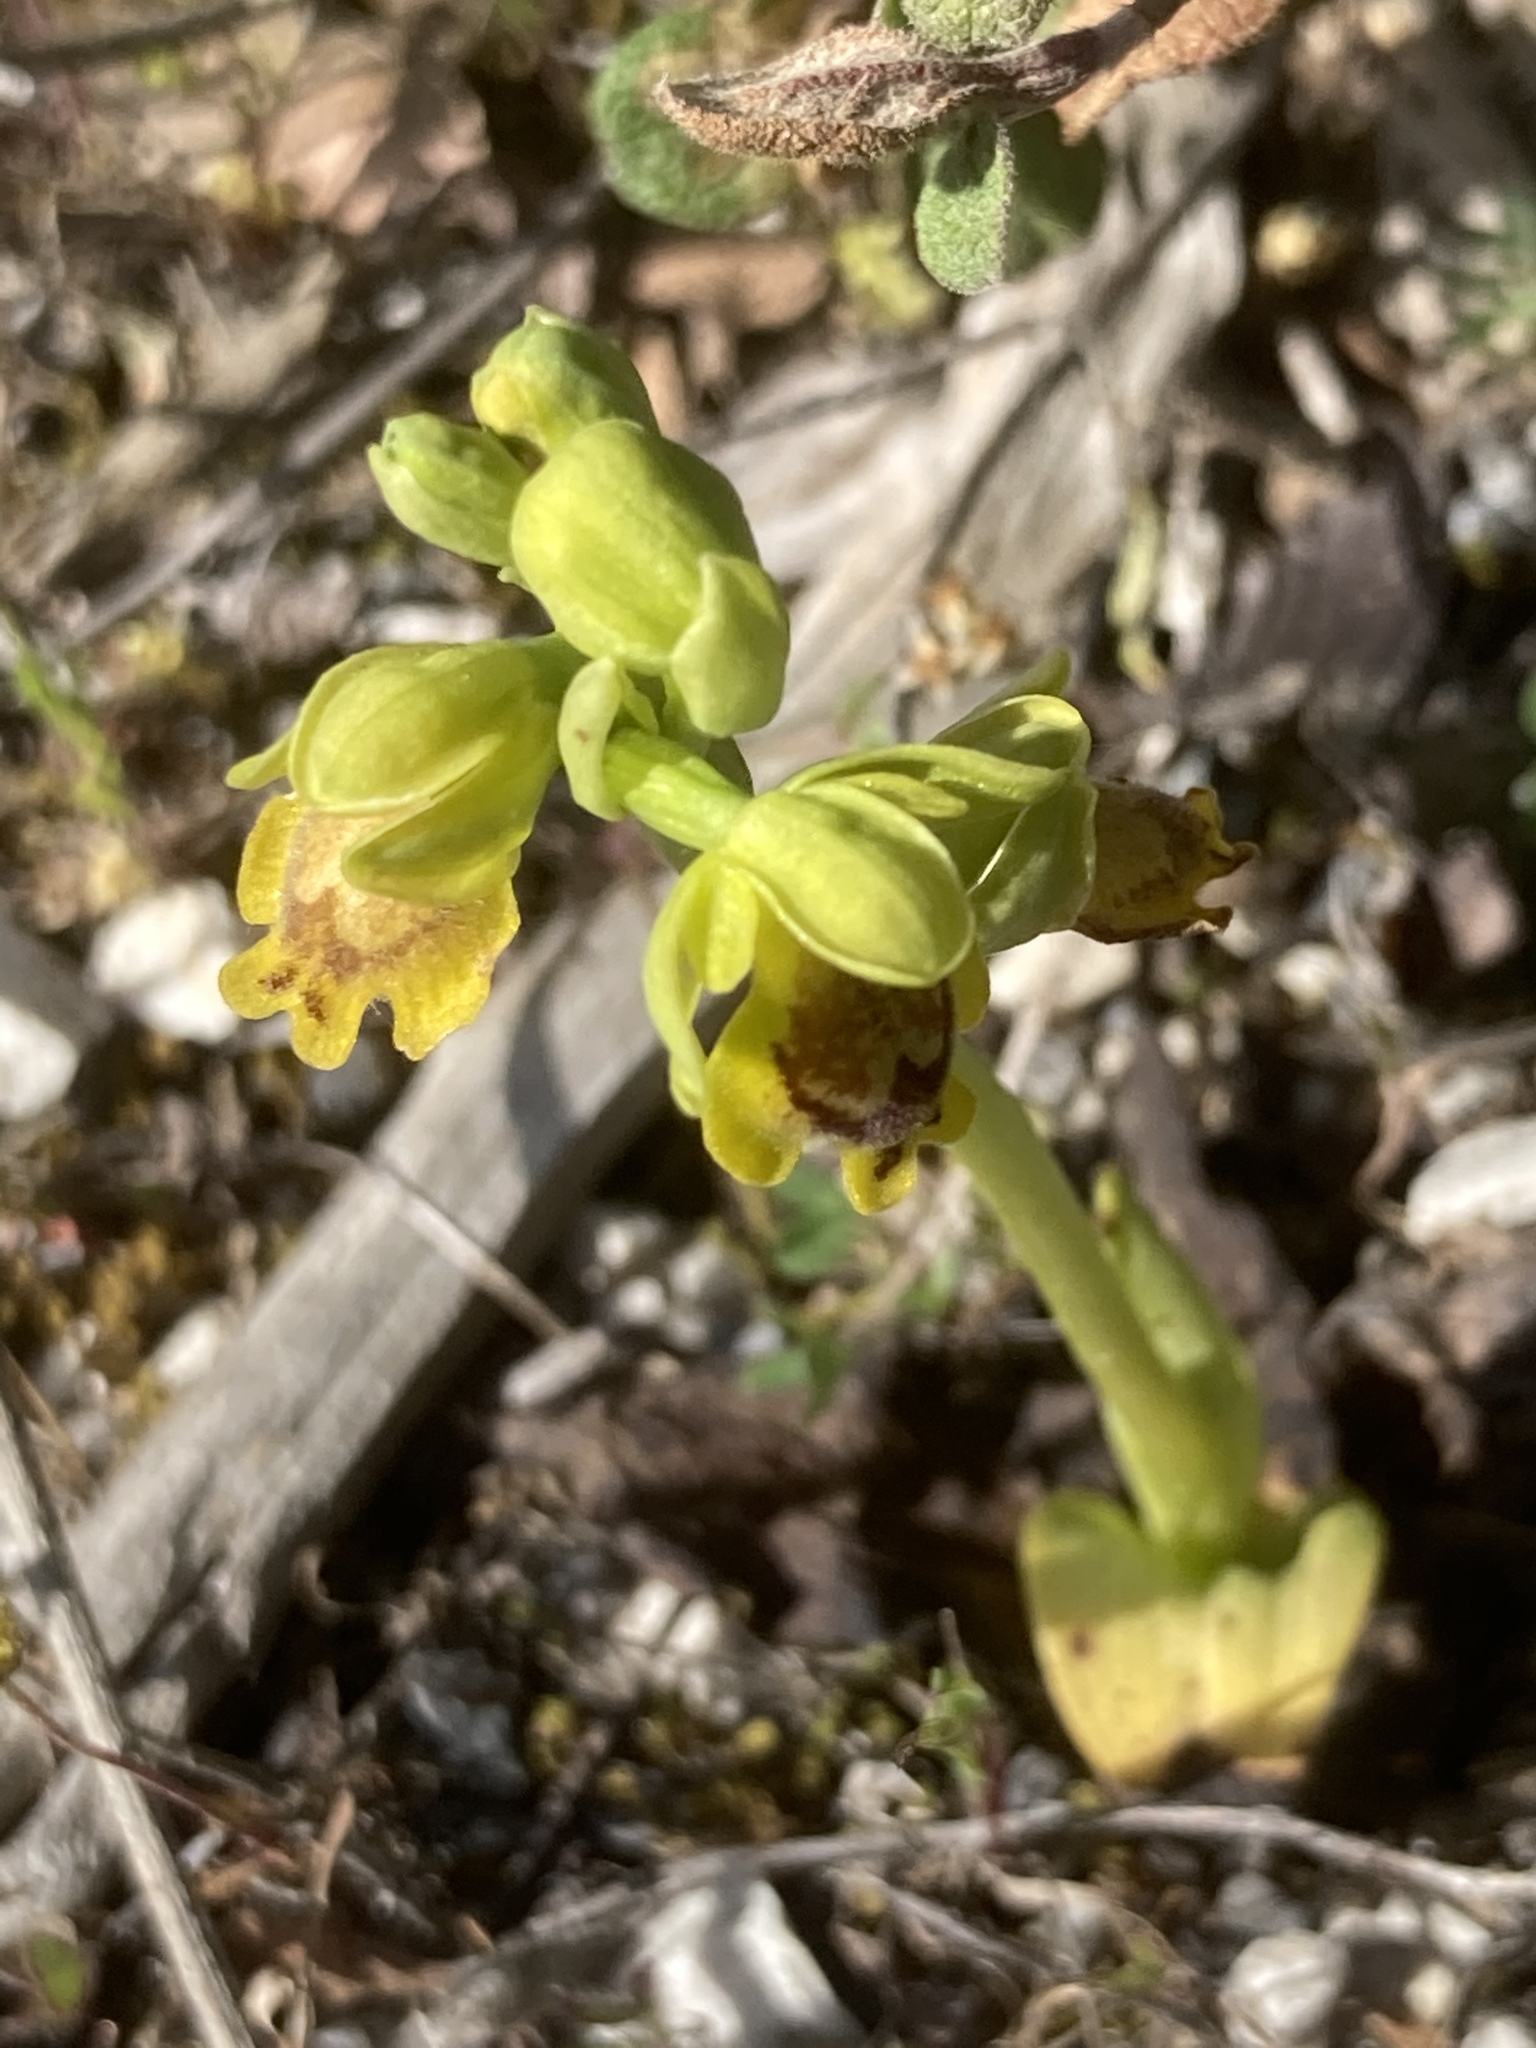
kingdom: Plantae
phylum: Tracheophyta
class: Liliopsida
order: Asparagales
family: Orchidaceae
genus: Ophrys
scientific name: Ophrys lutea
